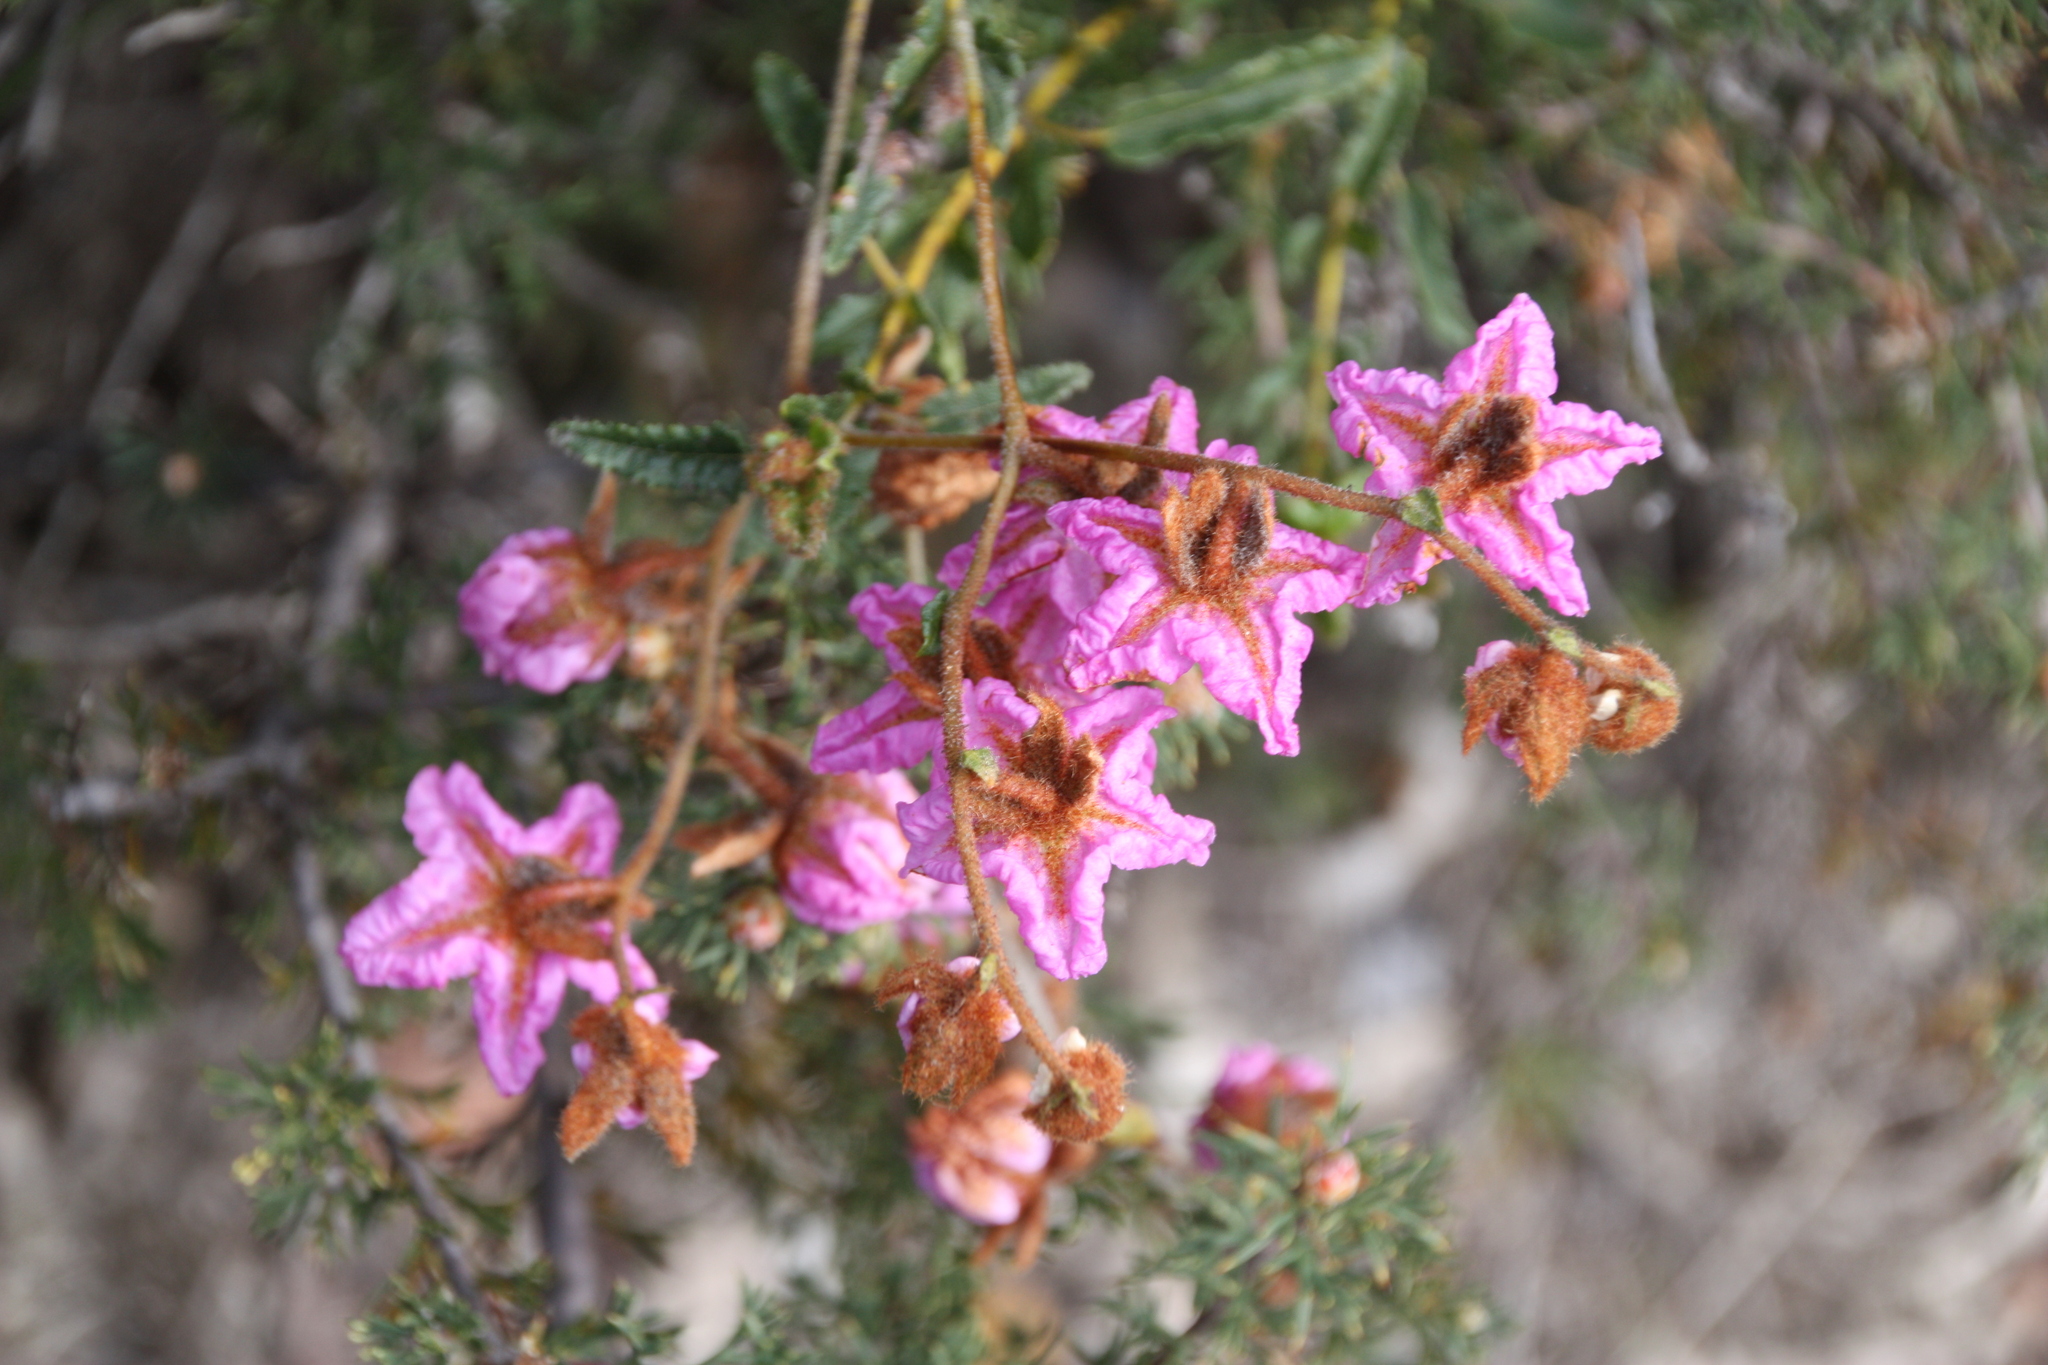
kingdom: Plantae
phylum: Tracheophyta
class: Magnoliopsida
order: Malvales
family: Malvaceae
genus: Thomasia
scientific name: Thomasia grandiflora
